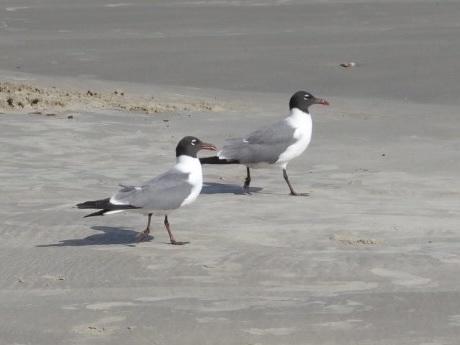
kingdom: Animalia
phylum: Chordata
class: Aves
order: Charadriiformes
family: Laridae
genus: Leucophaeus
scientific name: Leucophaeus atricilla
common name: Laughing gull
